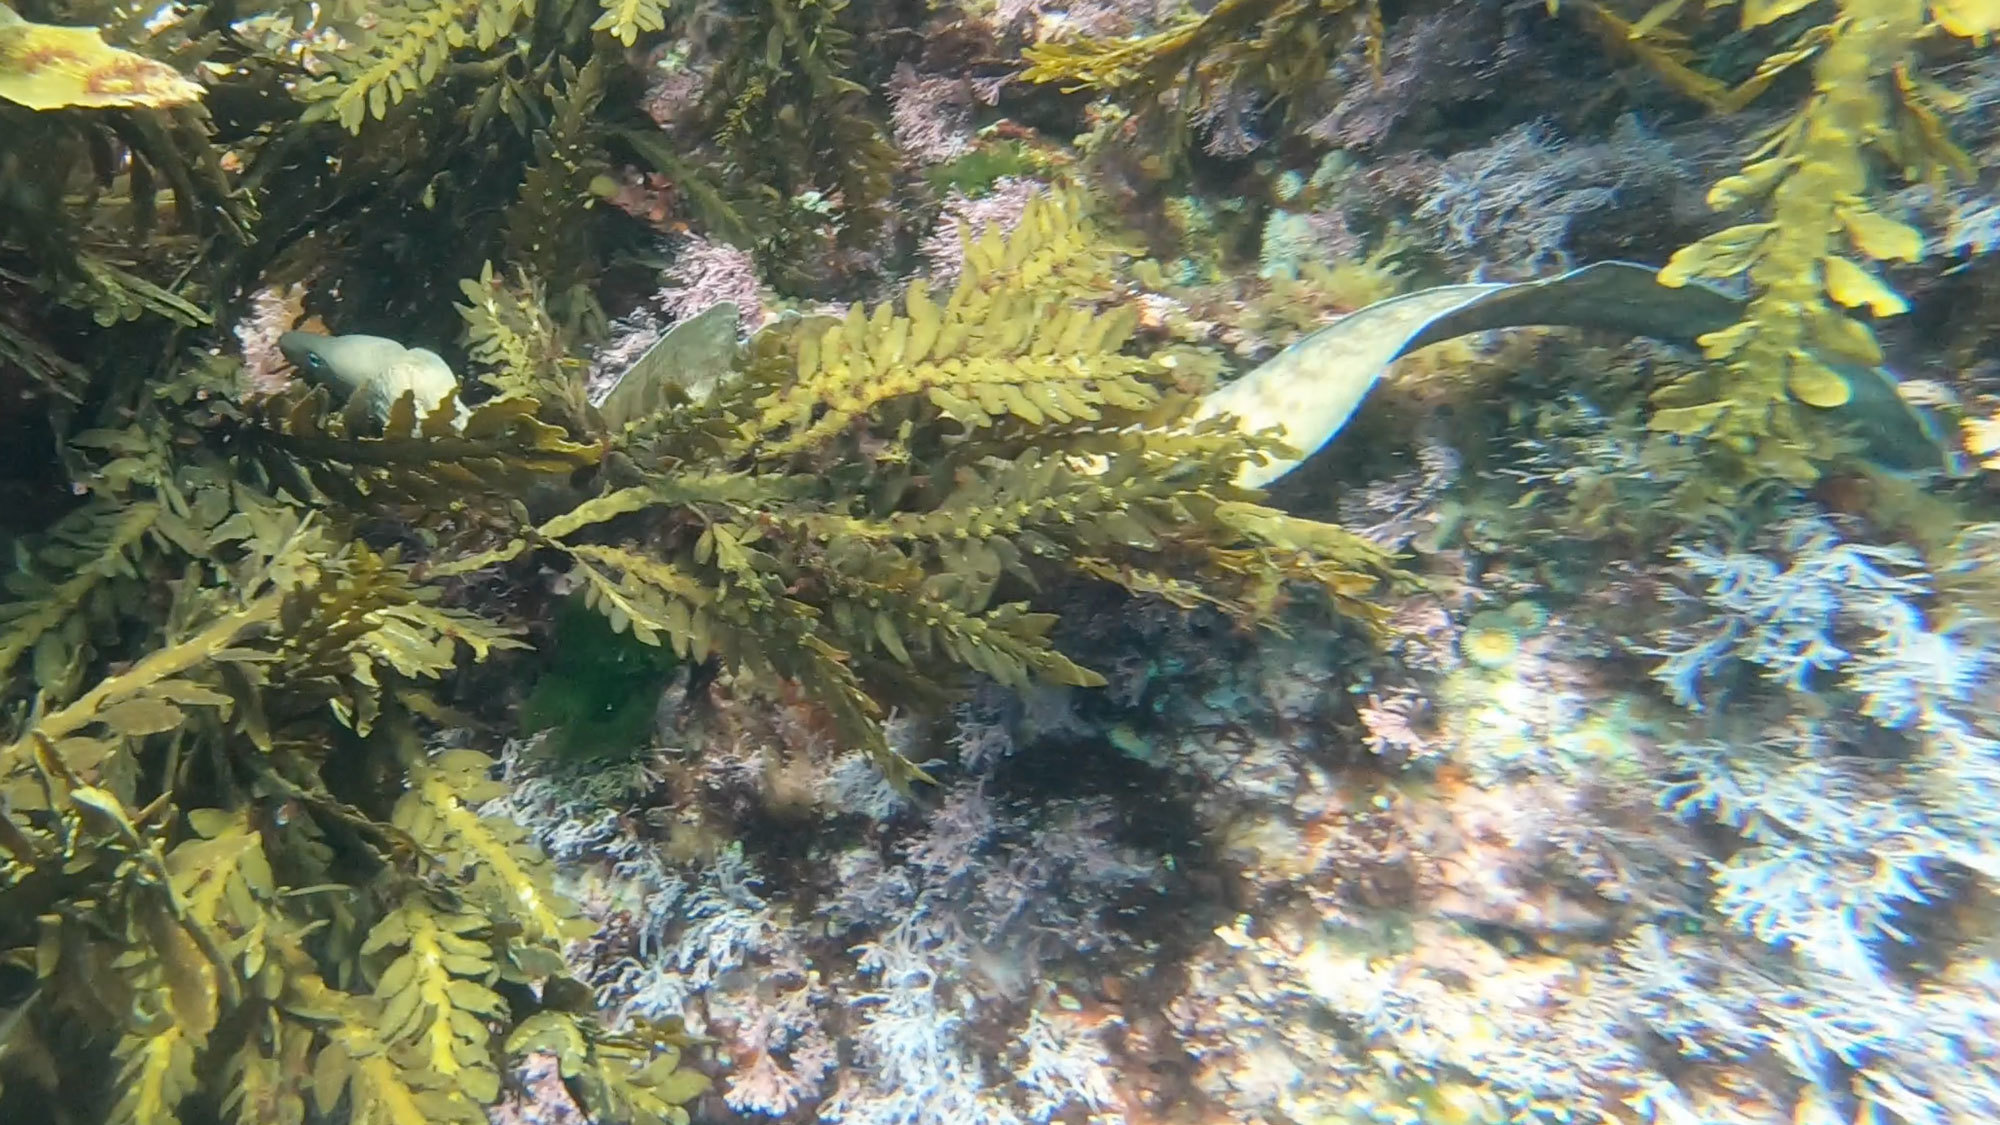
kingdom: Animalia
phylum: Chordata
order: Anguilliformes
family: Muraenidae
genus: Gymnothorax
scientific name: Gymnothorax nubilus
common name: Grey moray
